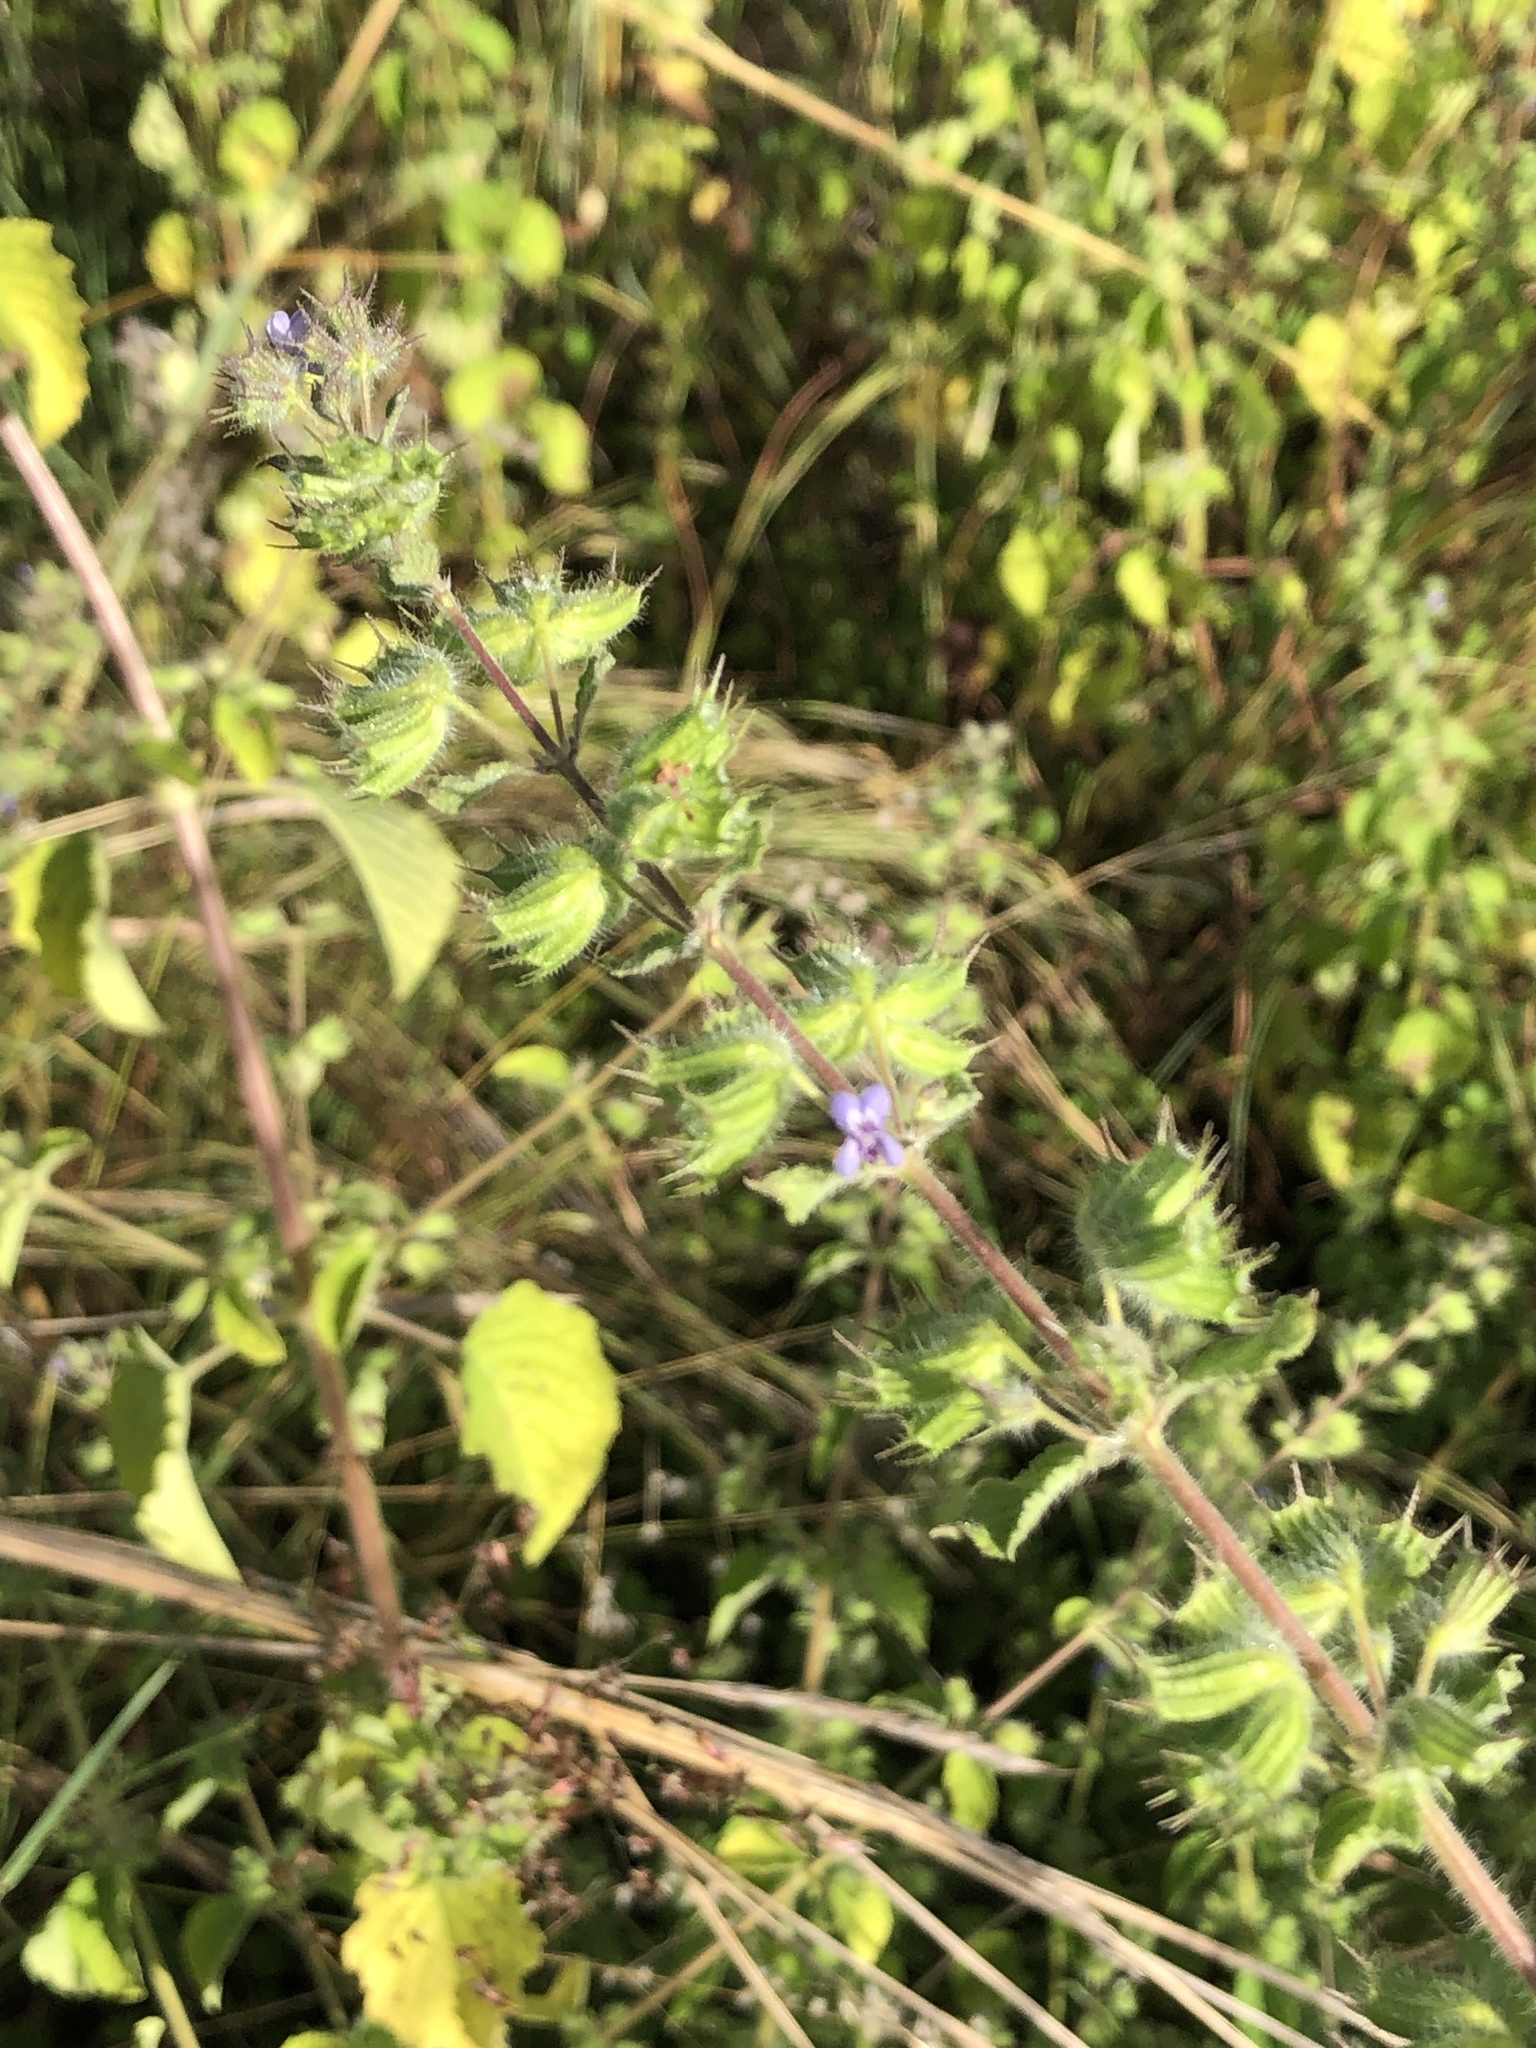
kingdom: Plantae
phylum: Tracheophyta
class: Magnoliopsida
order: Lamiales
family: Lamiaceae
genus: Mesosphaerum
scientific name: Mesosphaerum suaveolens
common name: Pignut
